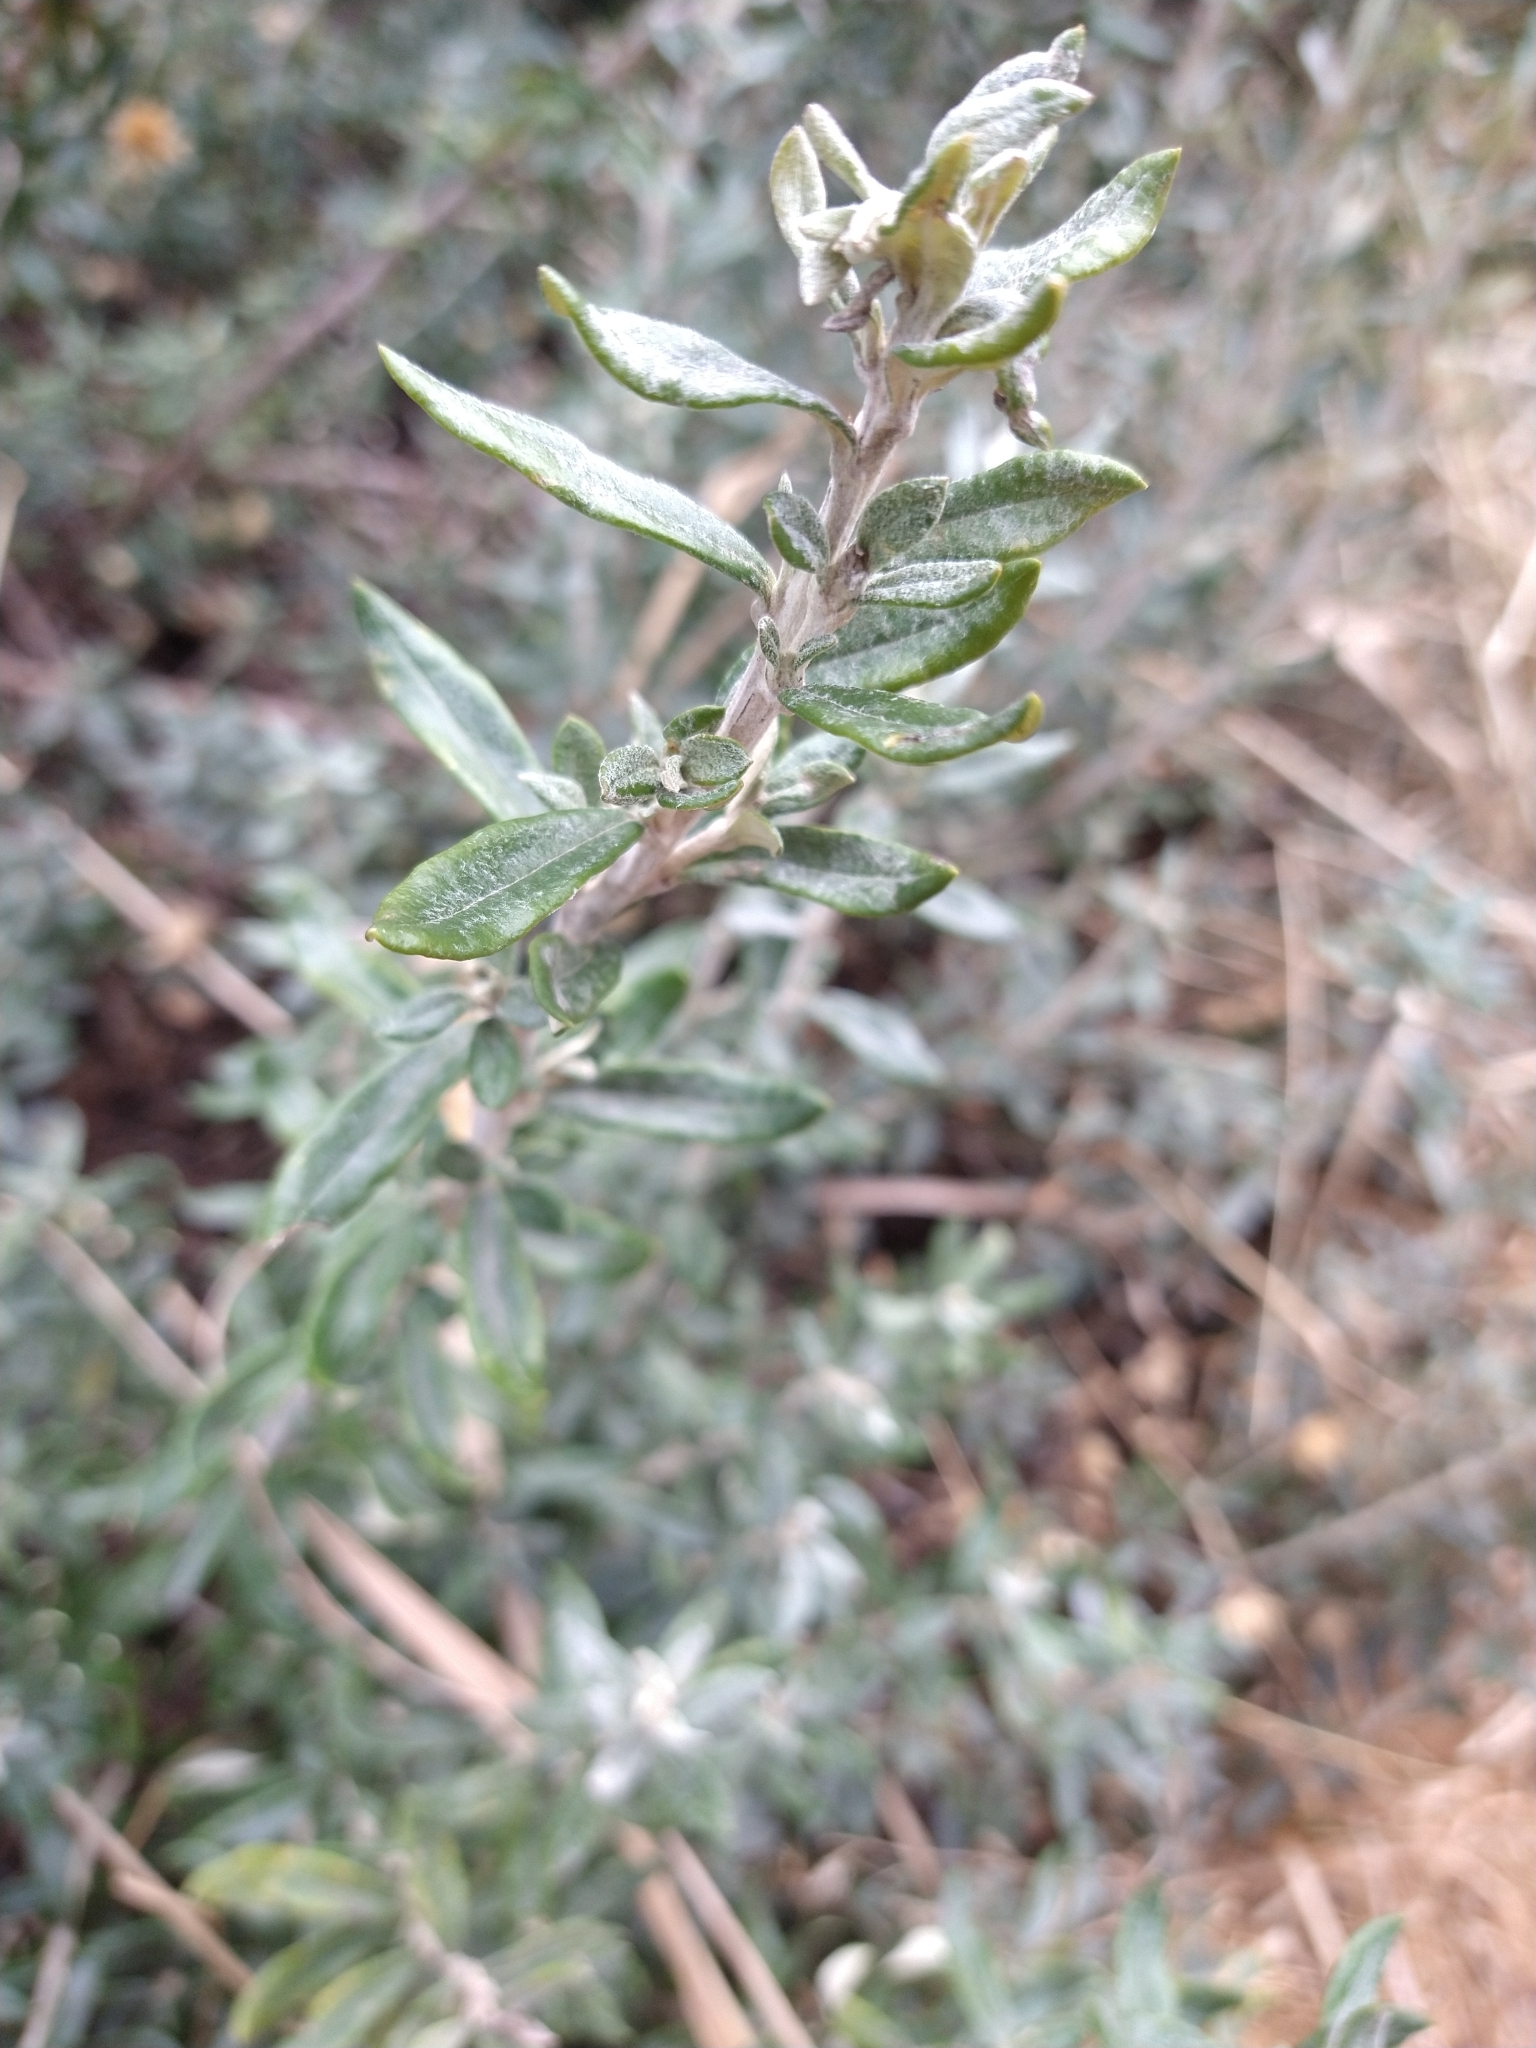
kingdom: Plantae
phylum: Tracheophyta
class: Magnoliopsida
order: Asterales
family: Asteraceae
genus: Chiliotrichum
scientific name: Chiliotrichum diffusum
